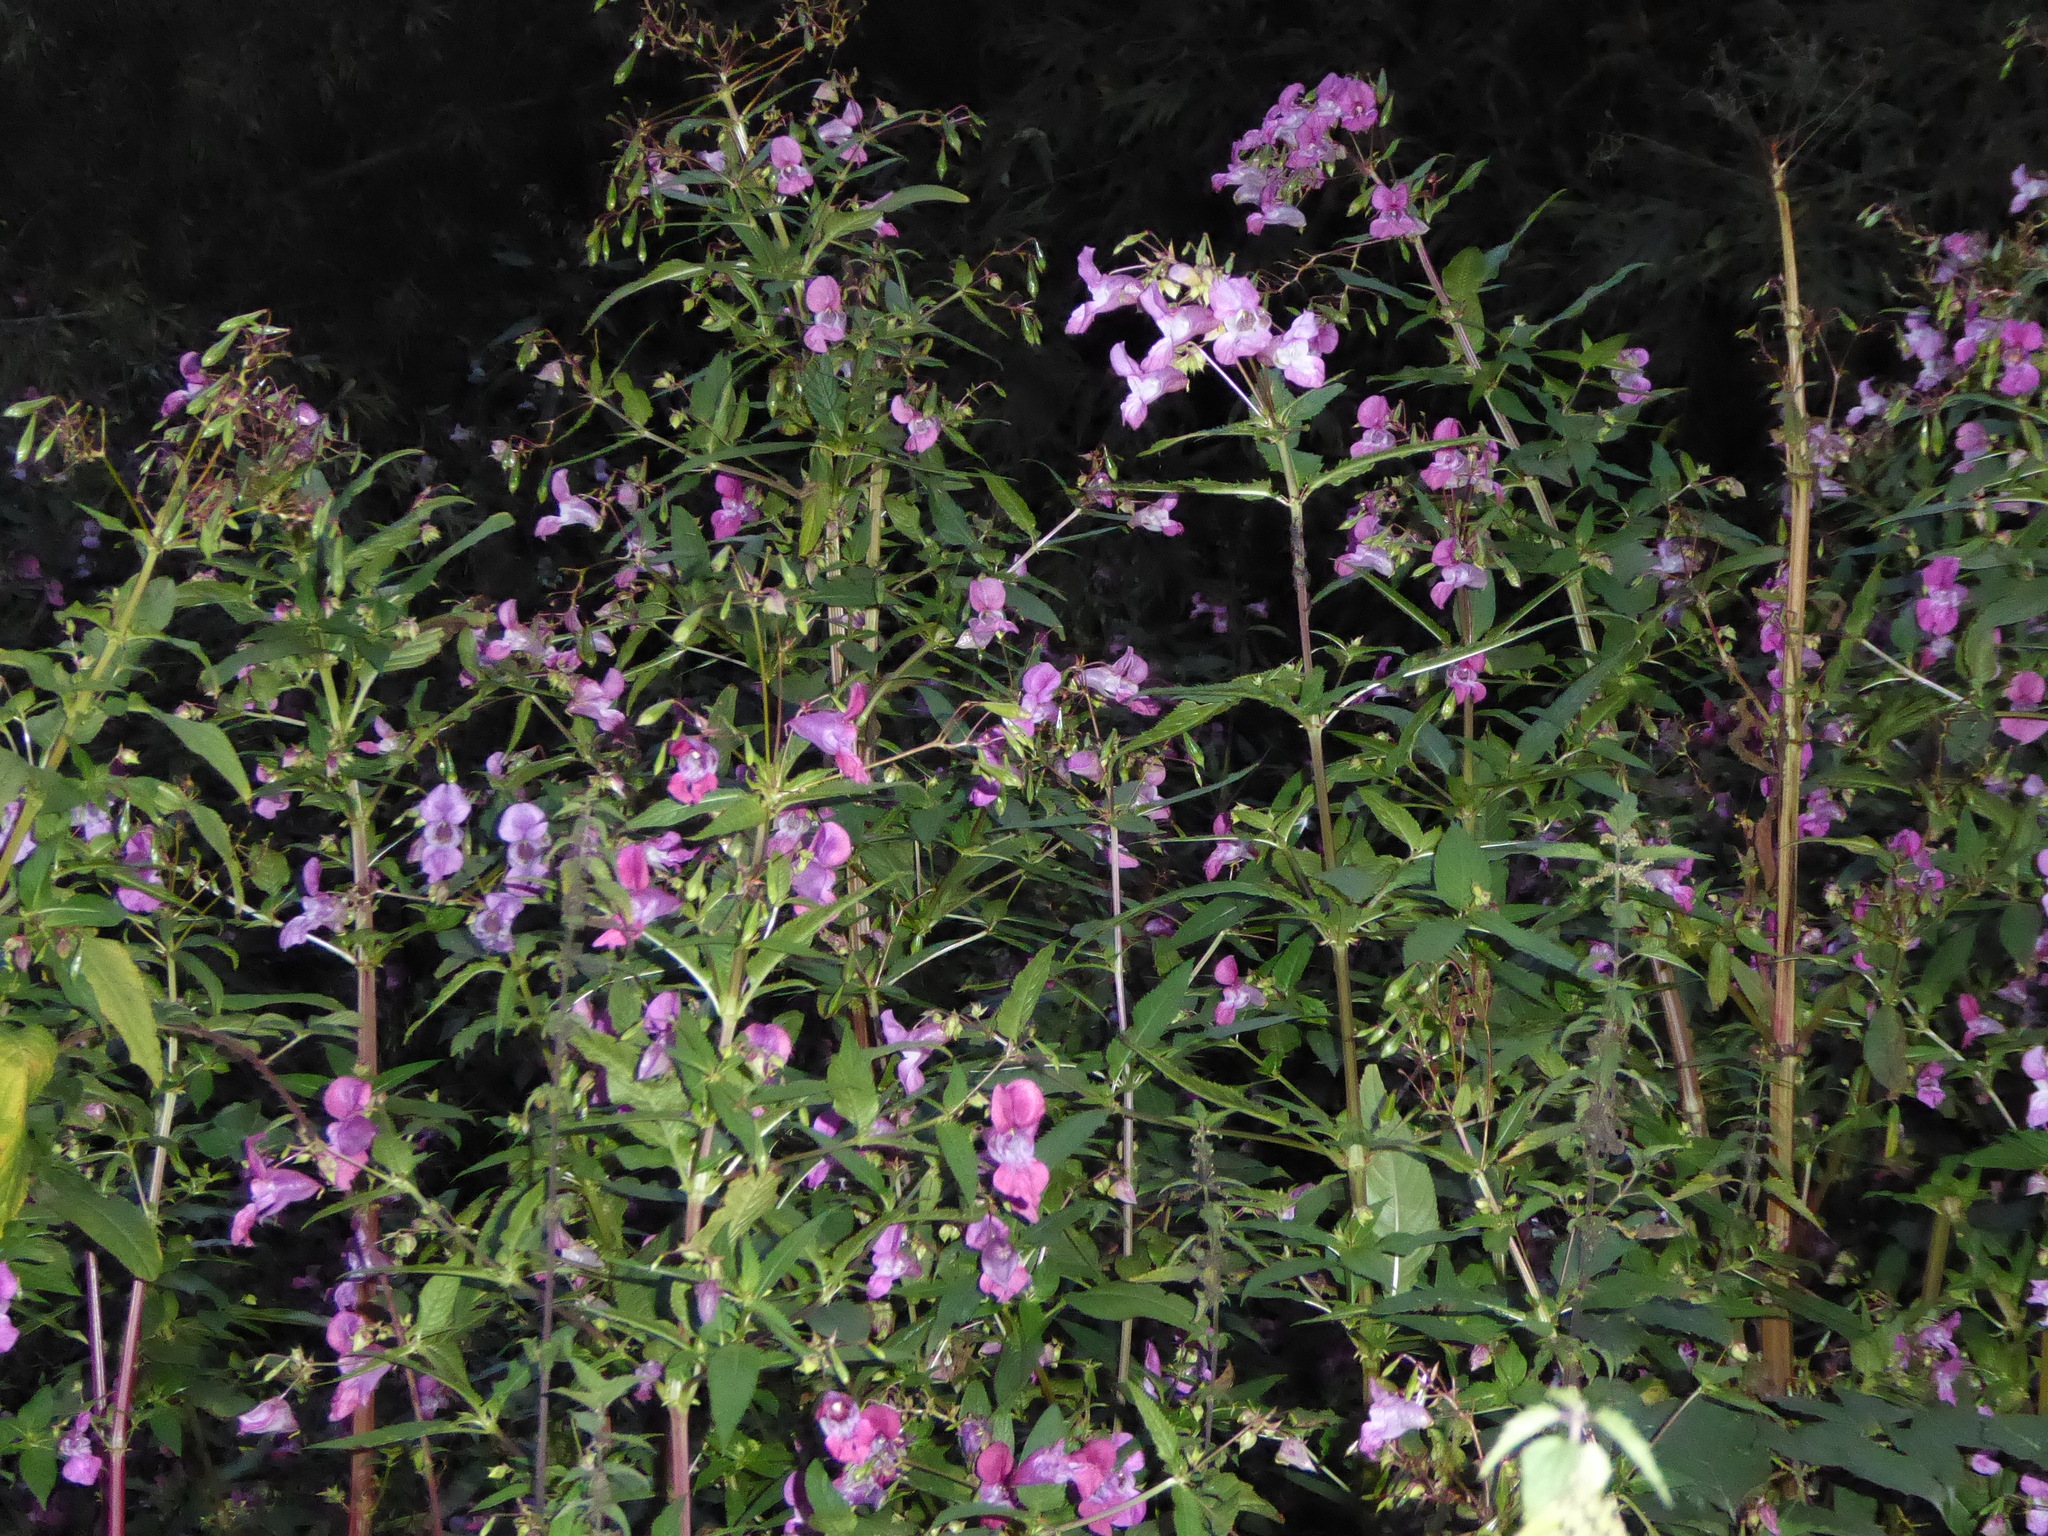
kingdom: Plantae
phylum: Tracheophyta
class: Magnoliopsida
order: Ericales
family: Balsaminaceae
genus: Impatiens
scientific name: Impatiens glandulifera
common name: Himalayan balsam
